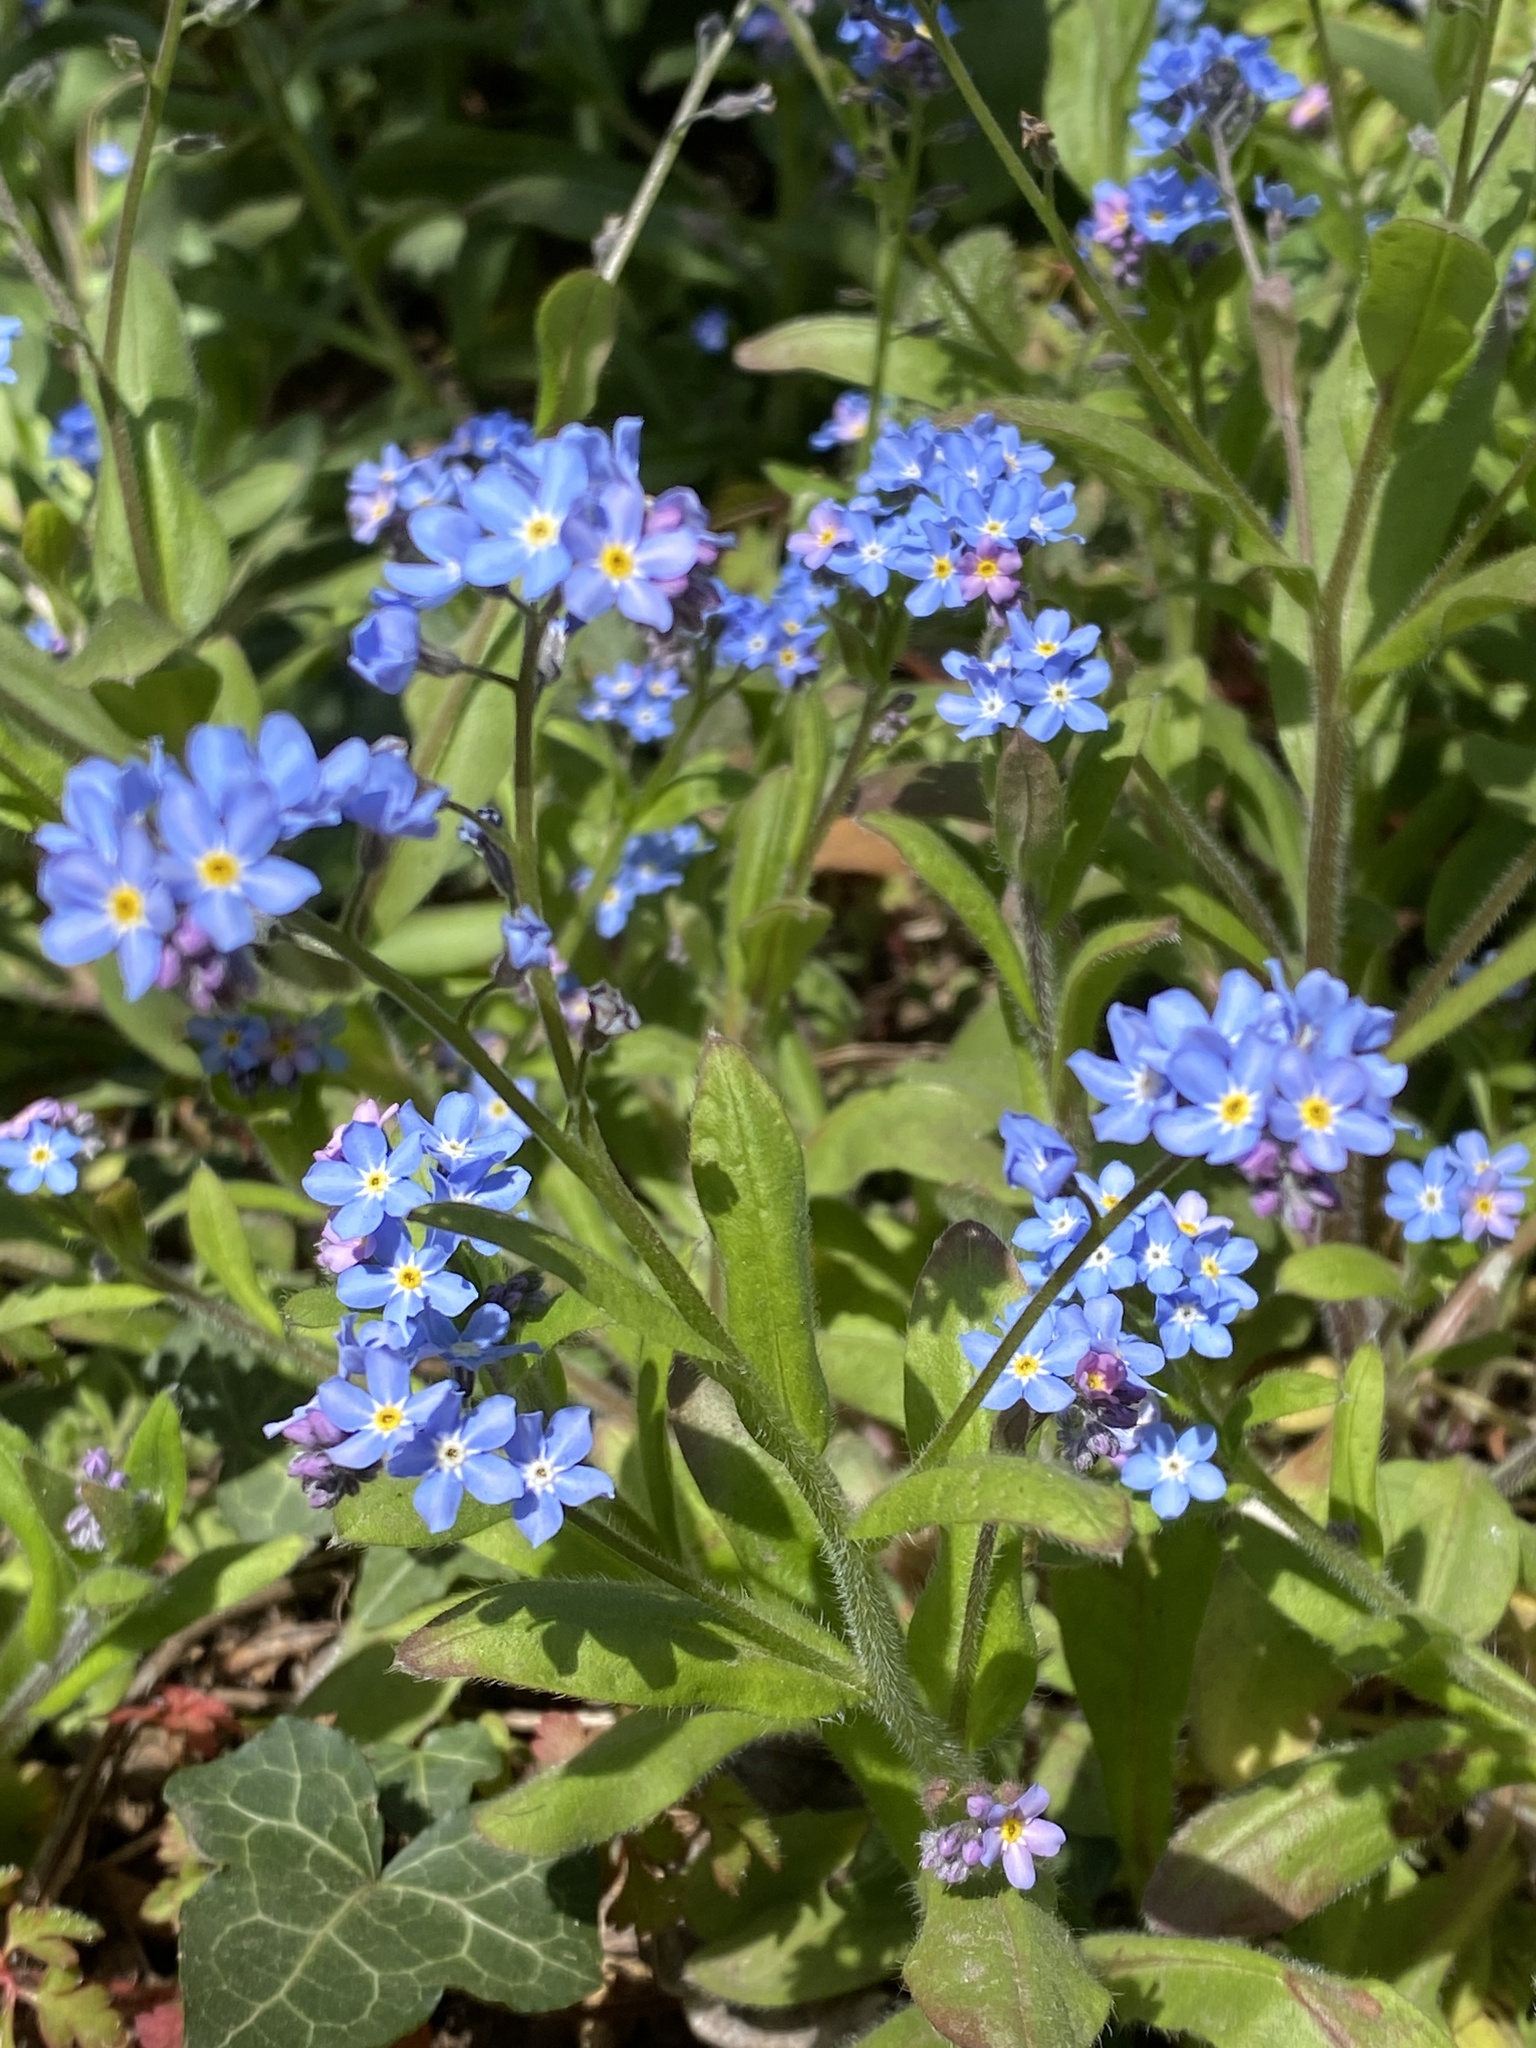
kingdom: Plantae
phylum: Tracheophyta
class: Magnoliopsida
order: Boraginales
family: Boraginaceae
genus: Myosotis
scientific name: Myosotis sylvatica
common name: Wood forget-me-not
